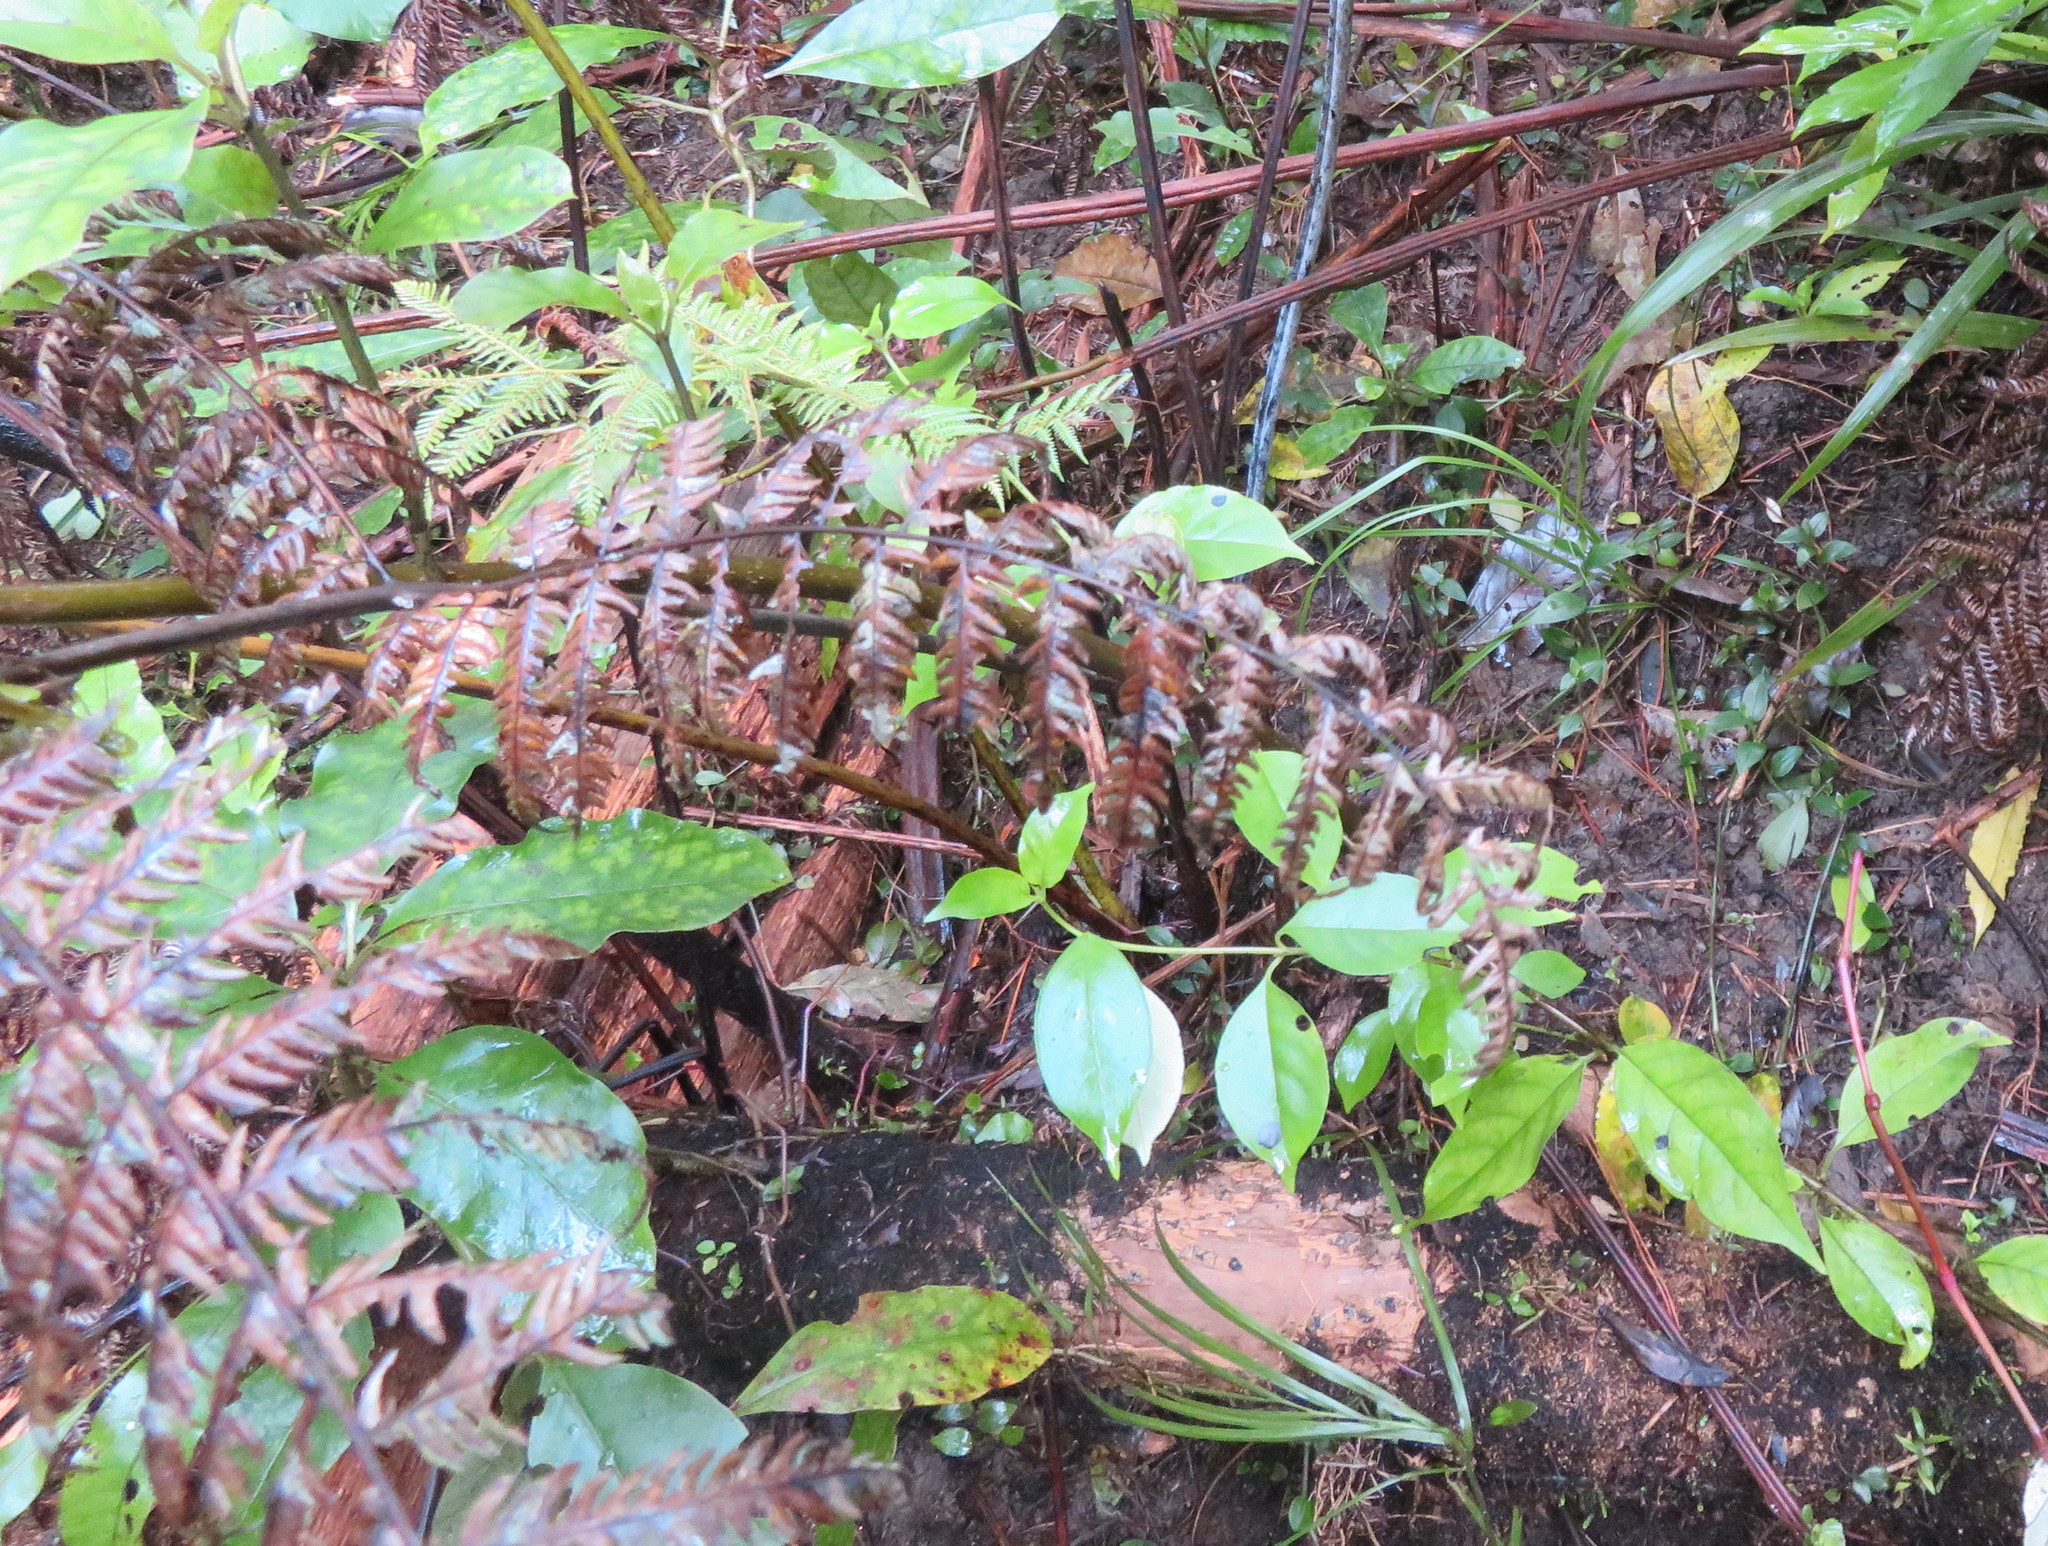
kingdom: Plantae
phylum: Tracheophyta
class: Magnoliopsida
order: Gentianales
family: Rubiaceae
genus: Coprosma
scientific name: Coprosma autumnalis
